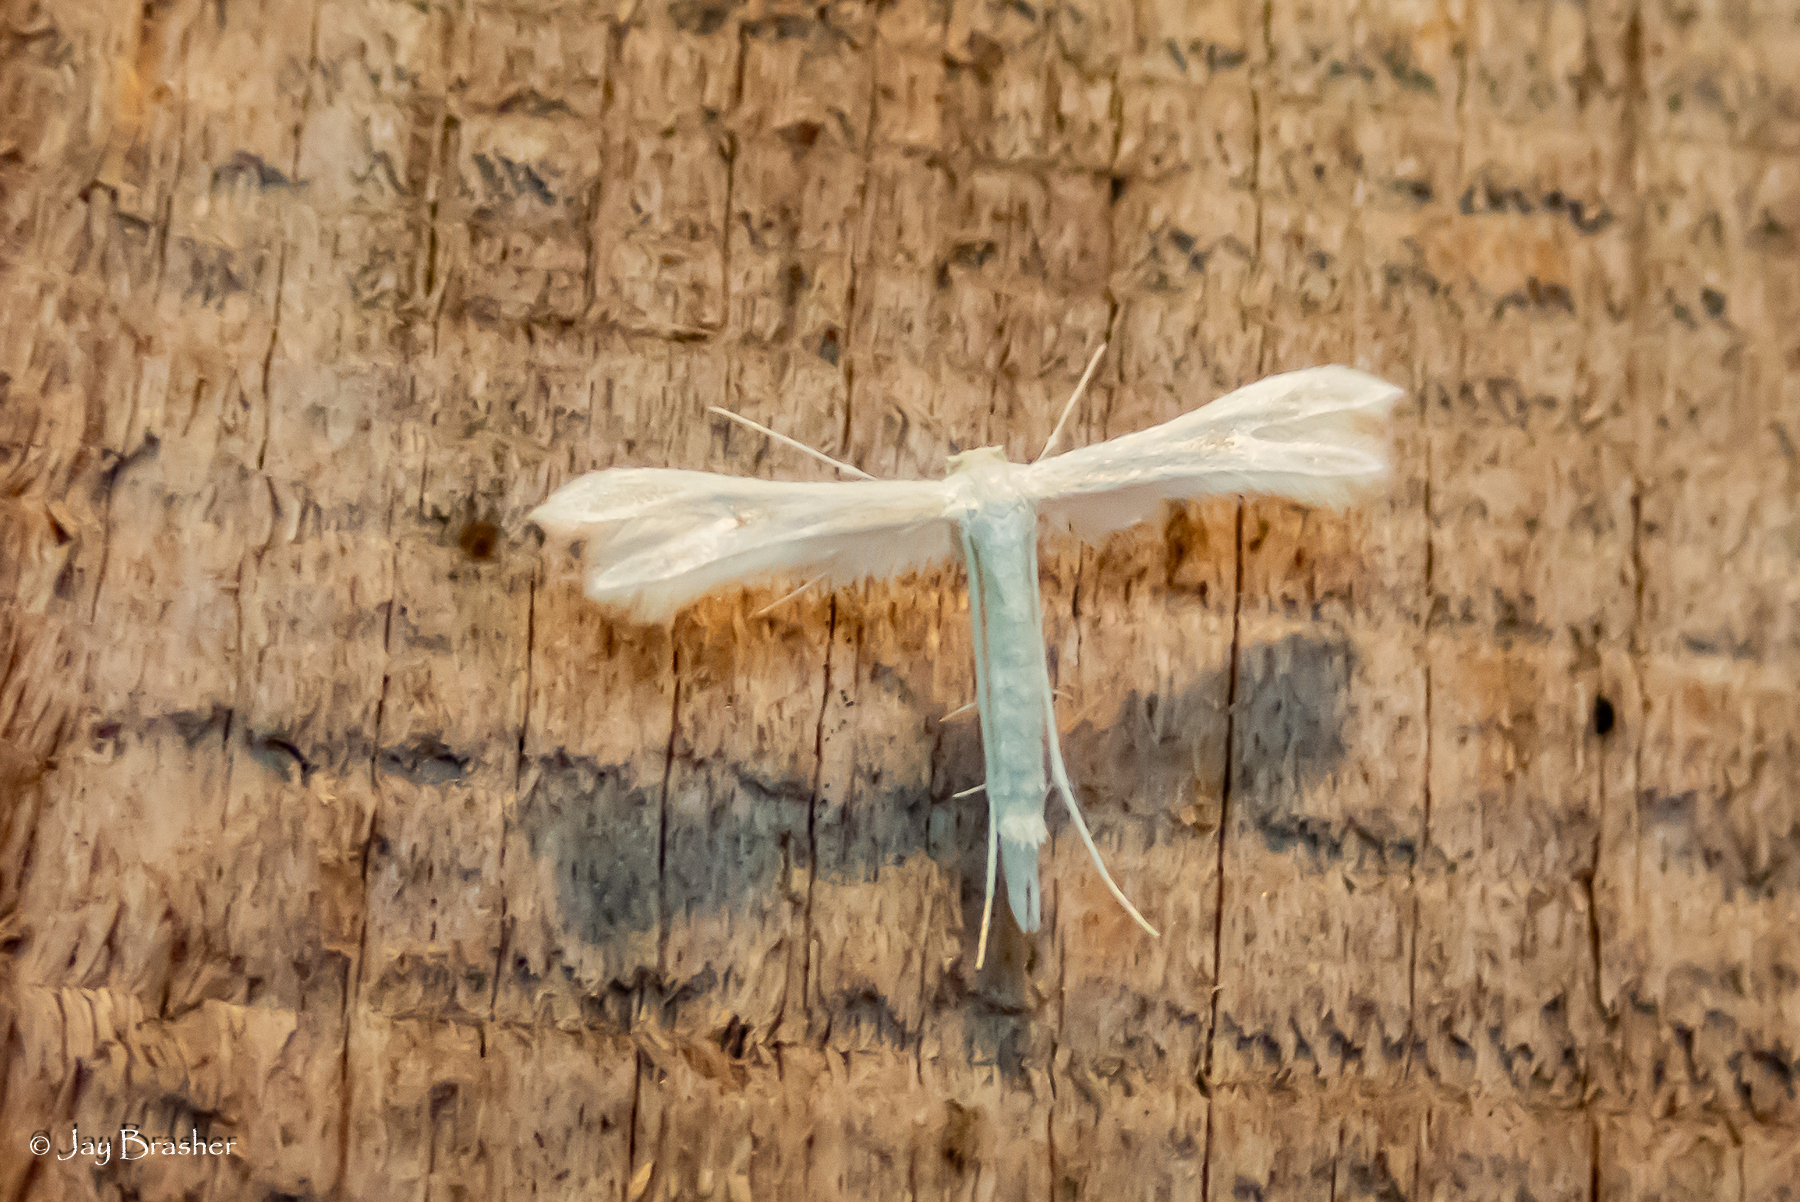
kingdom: Animalia
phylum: Arthropoda
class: Insecta
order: Lepidoptera
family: Pterophoridae
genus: Adaina
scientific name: Adaina
